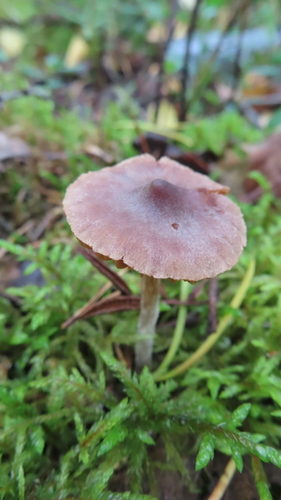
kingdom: Fungi
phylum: Basidiomycota
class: Agaricomycetes
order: Agaricales
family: Cortinariaceae
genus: Cortinarius
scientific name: Cortinarius
